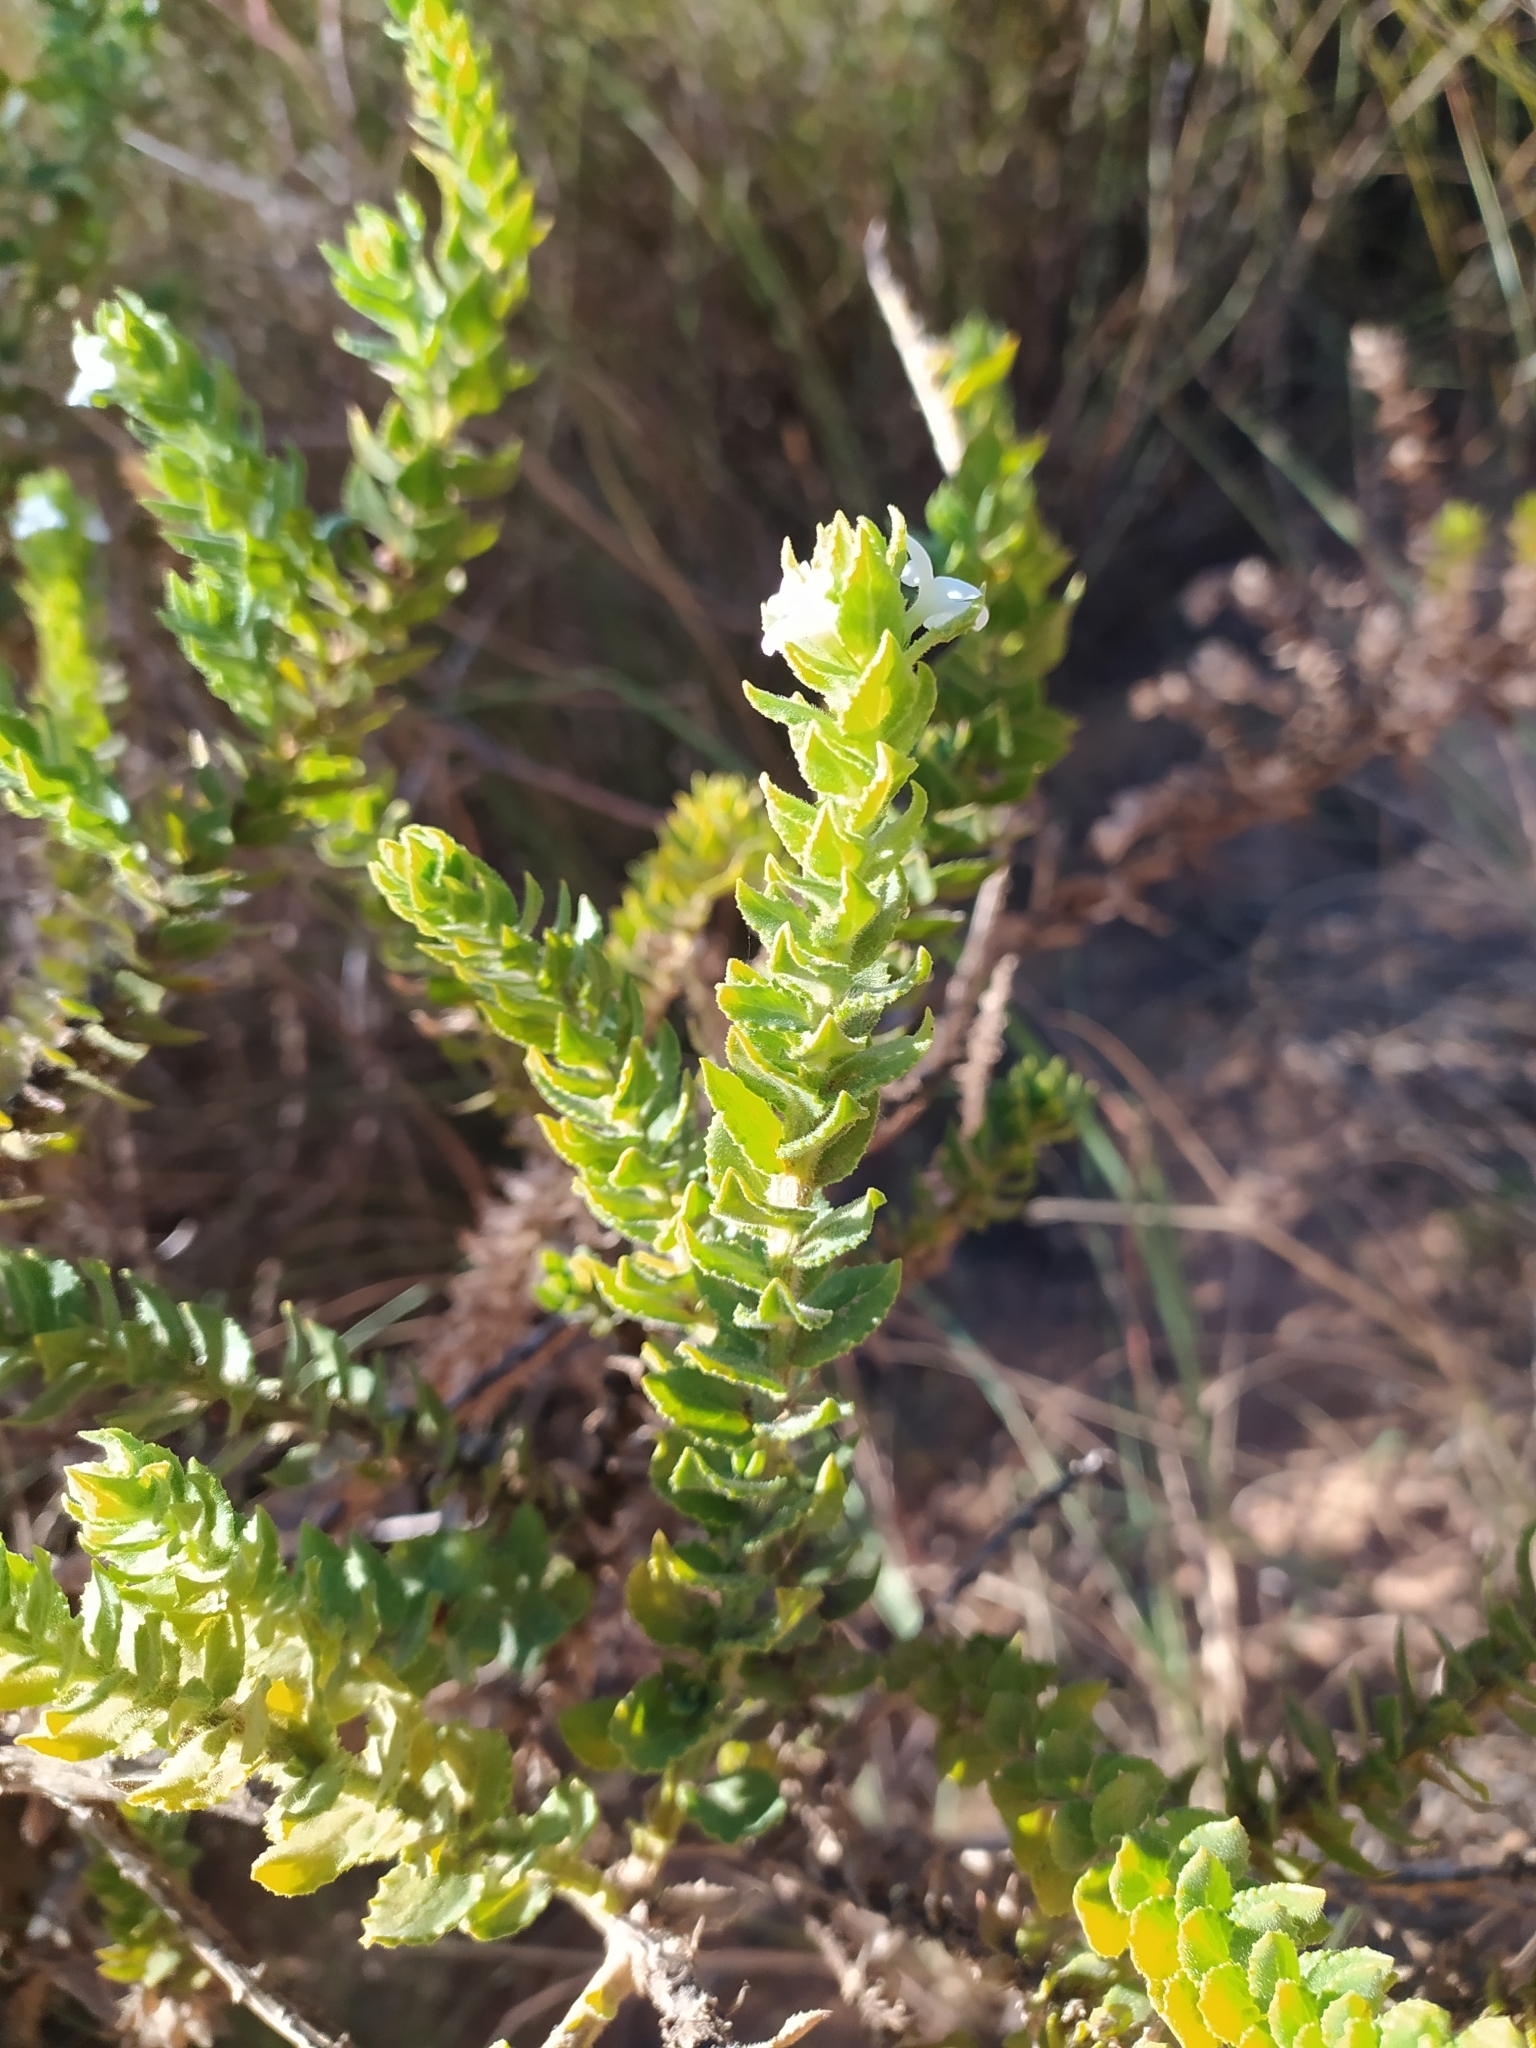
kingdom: Plantae
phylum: Tracheophyta
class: Magnoliopsida
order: Lamiales
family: Scrophulariaceae
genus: Oftia
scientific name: Oftia africana
